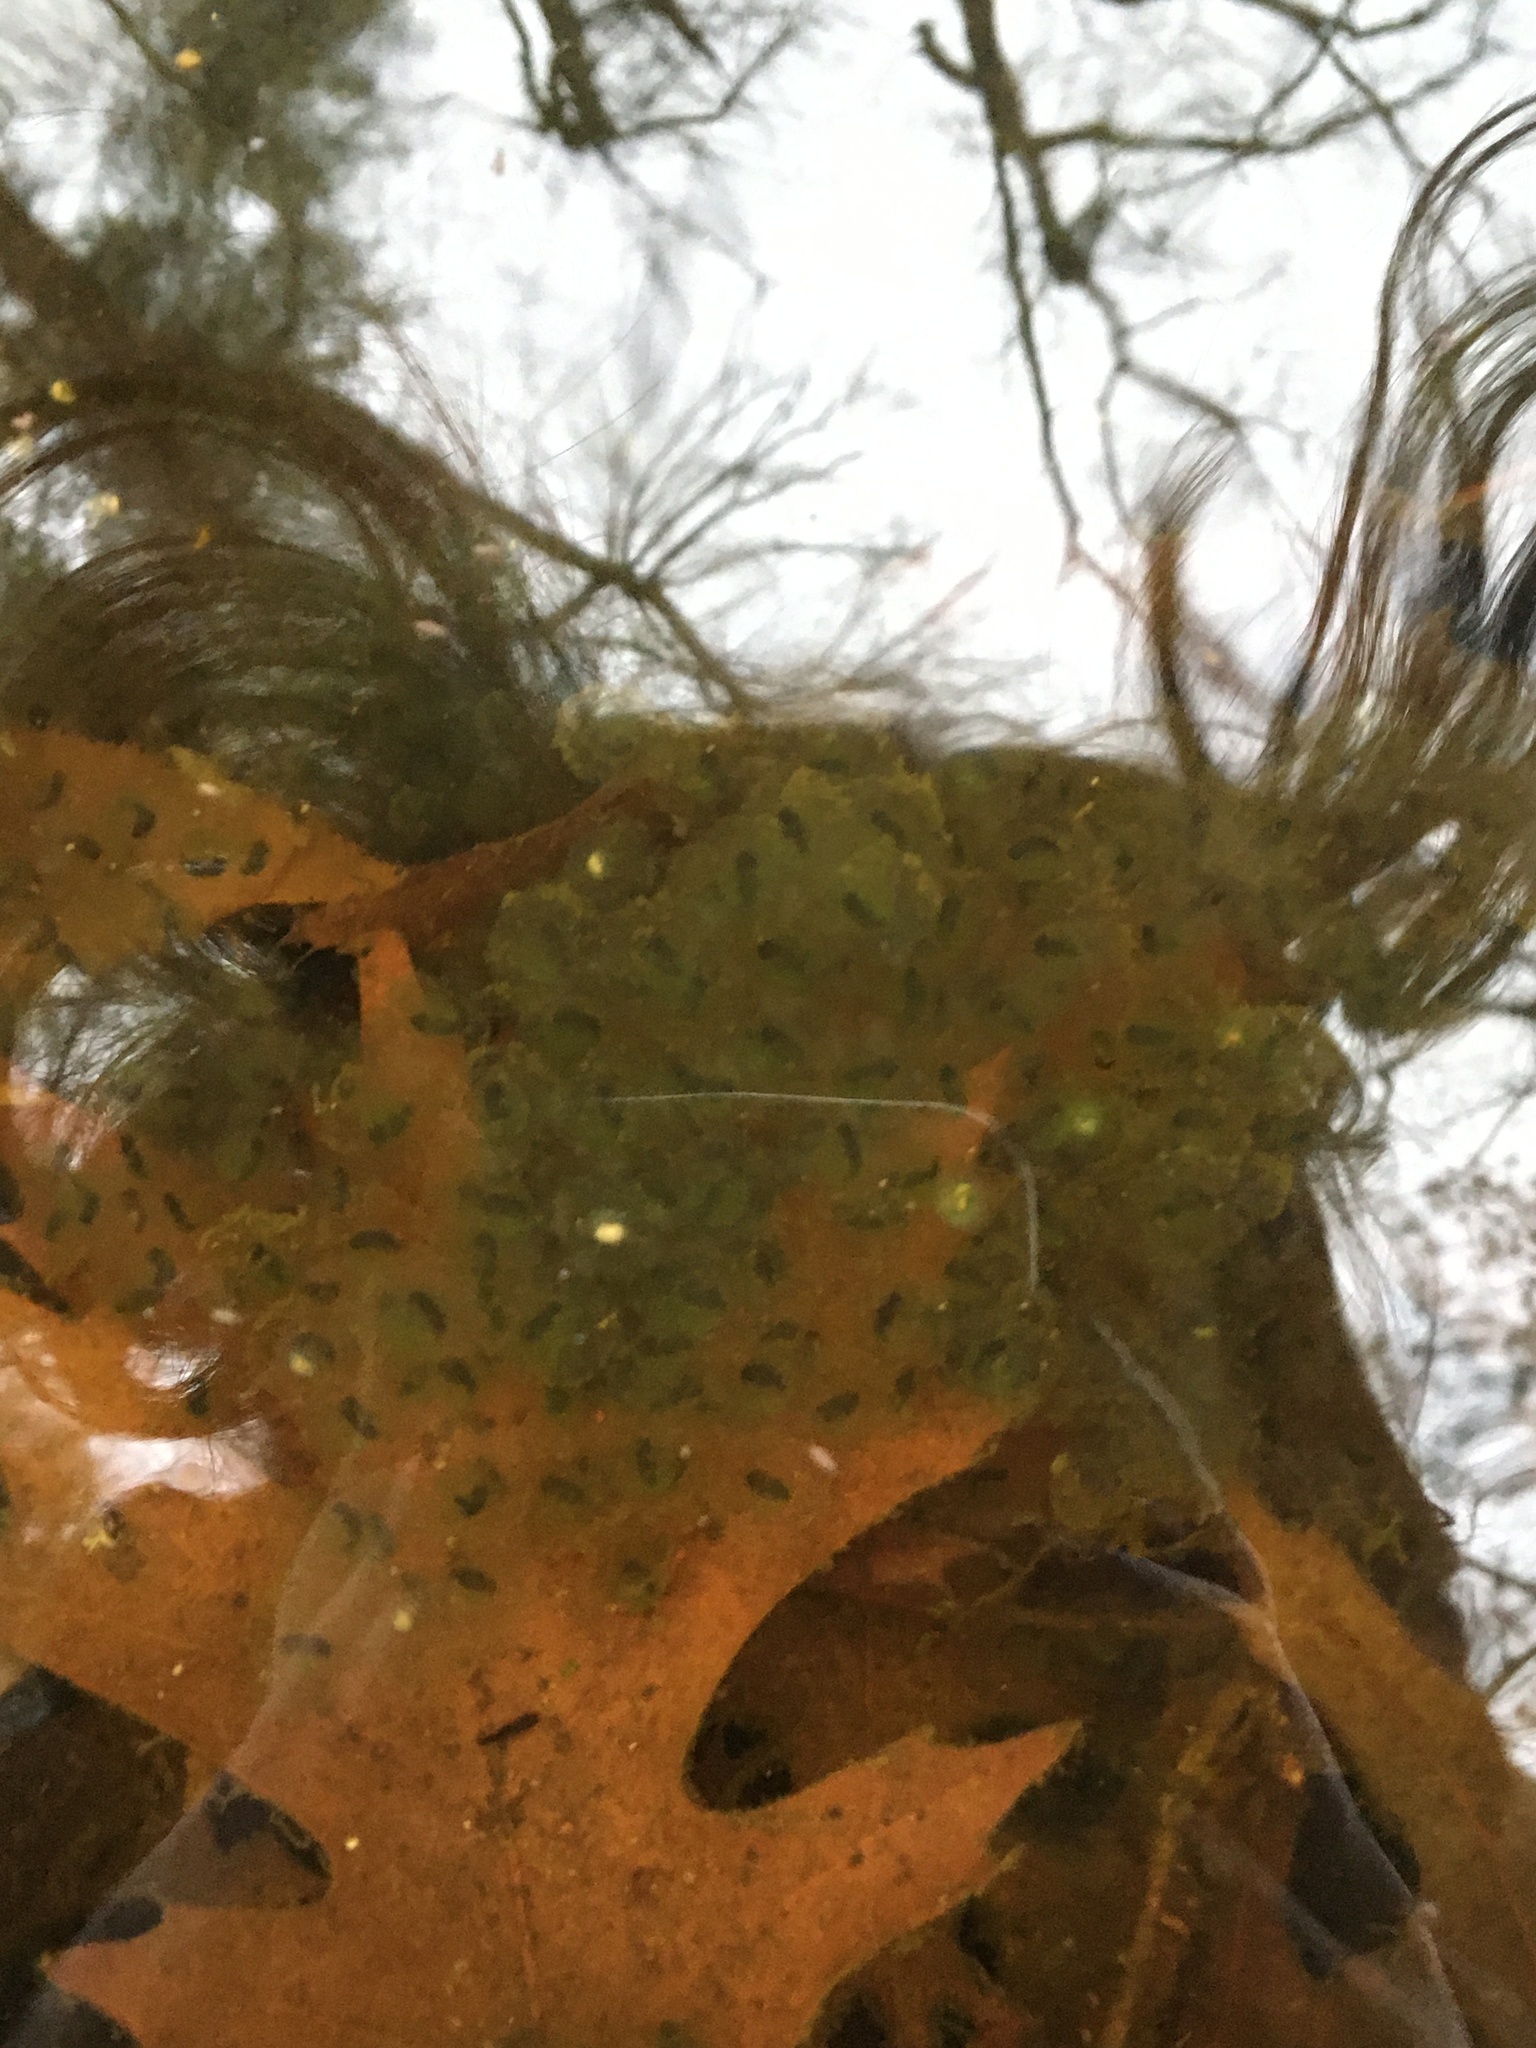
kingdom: Plantae
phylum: Chlorophyta
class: Chlorophyceae
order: Chlamydomonadales
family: Chlorococcaceae
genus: Oophila
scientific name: Oophila amblystomatis
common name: Salamander algae
